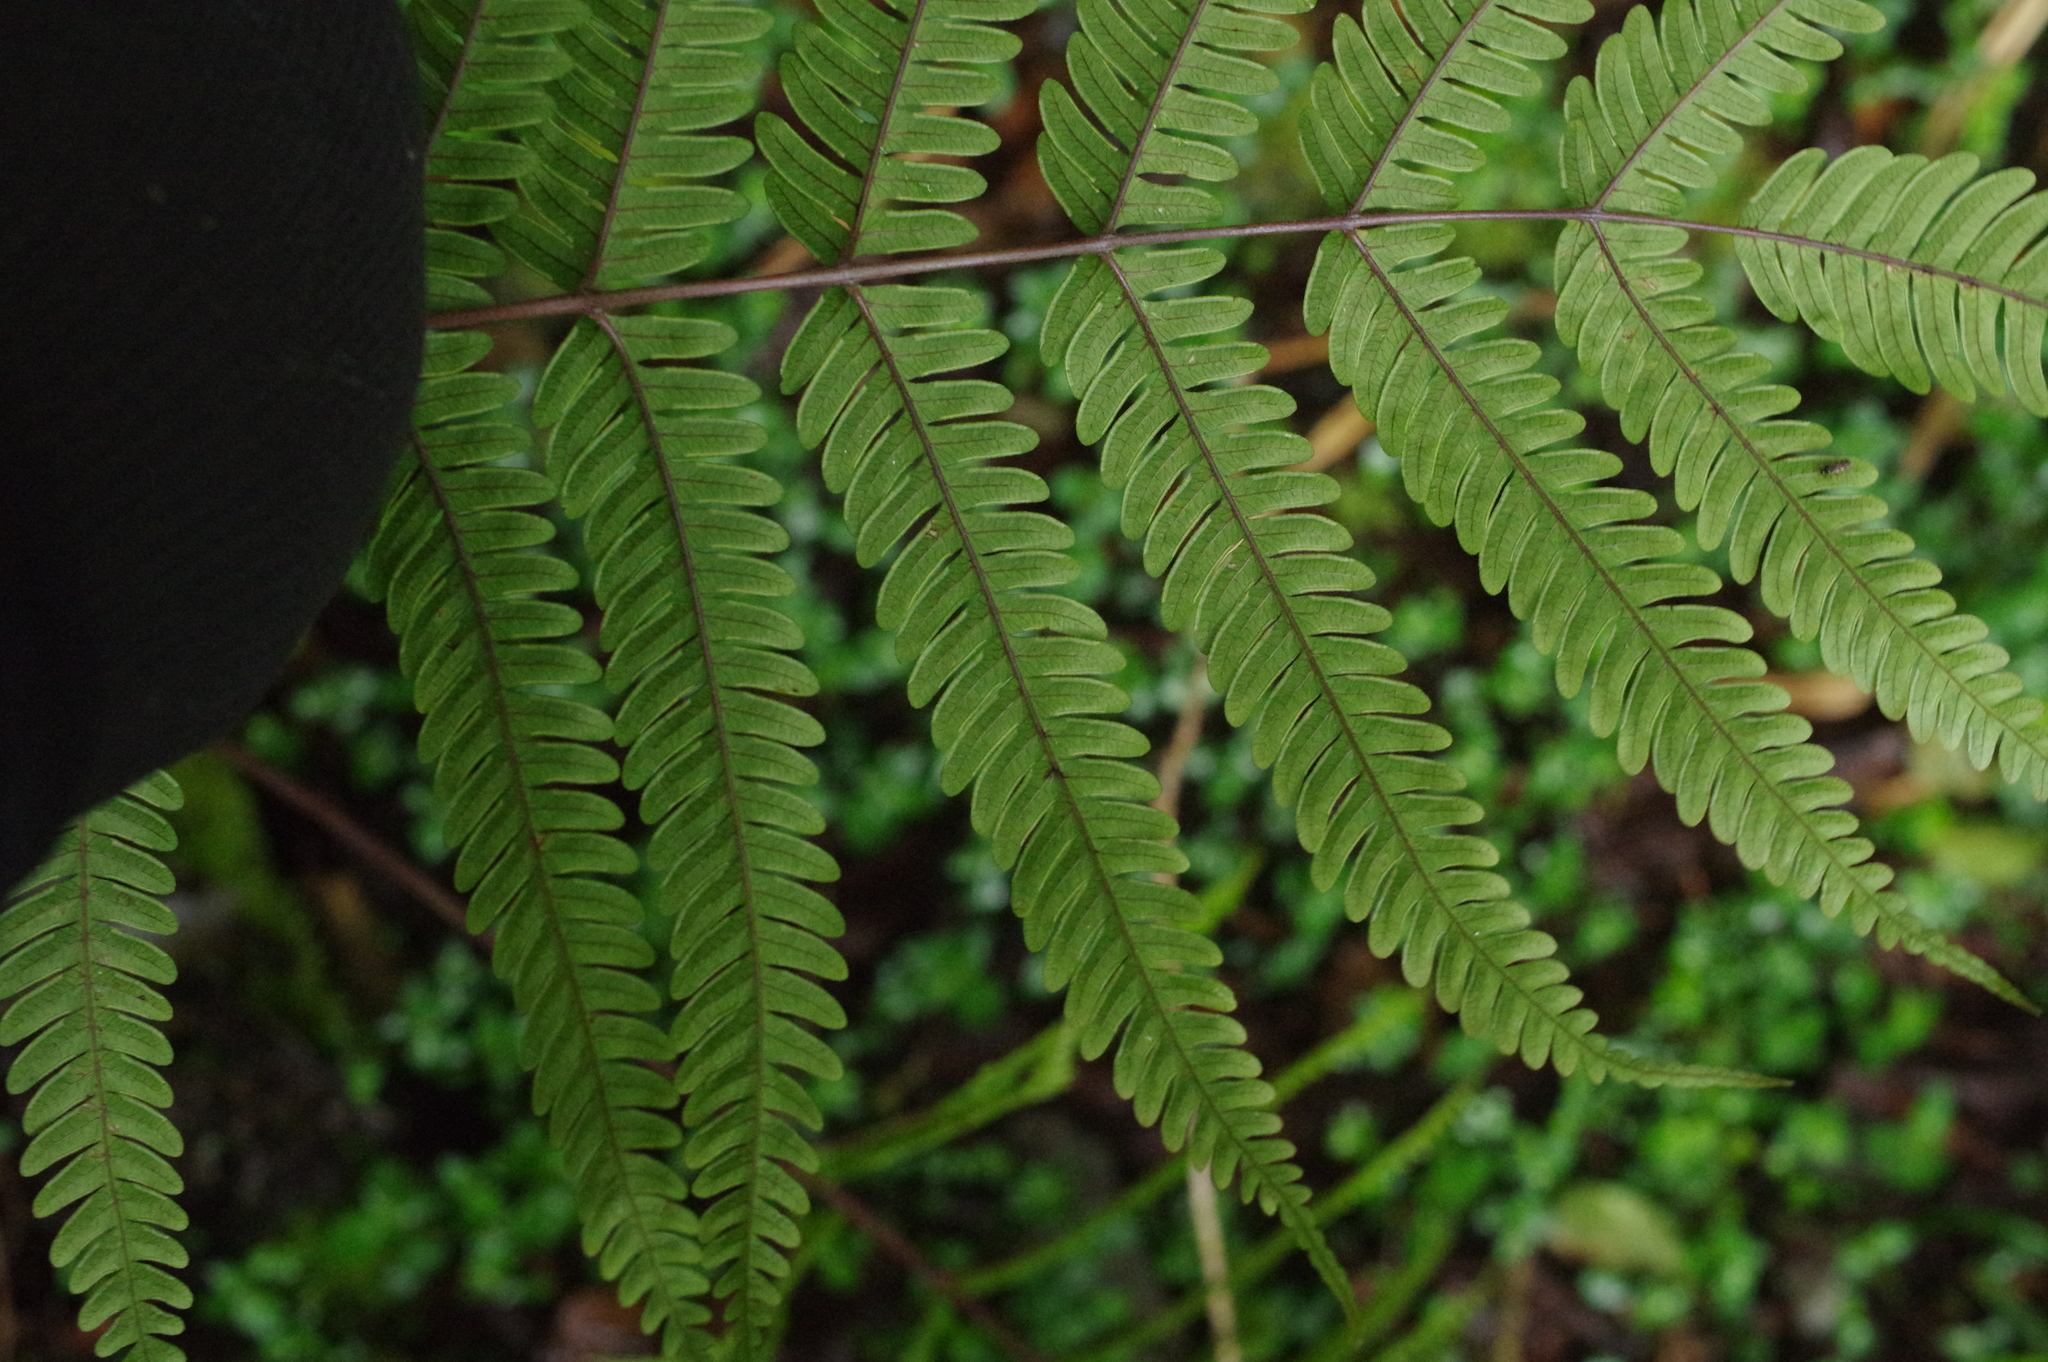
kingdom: Plantae
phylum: Tracheophyta
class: Polypodiopsida
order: Polypodiales
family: Pteridaceae
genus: Pteris
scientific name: Pteris setulosocostulata
